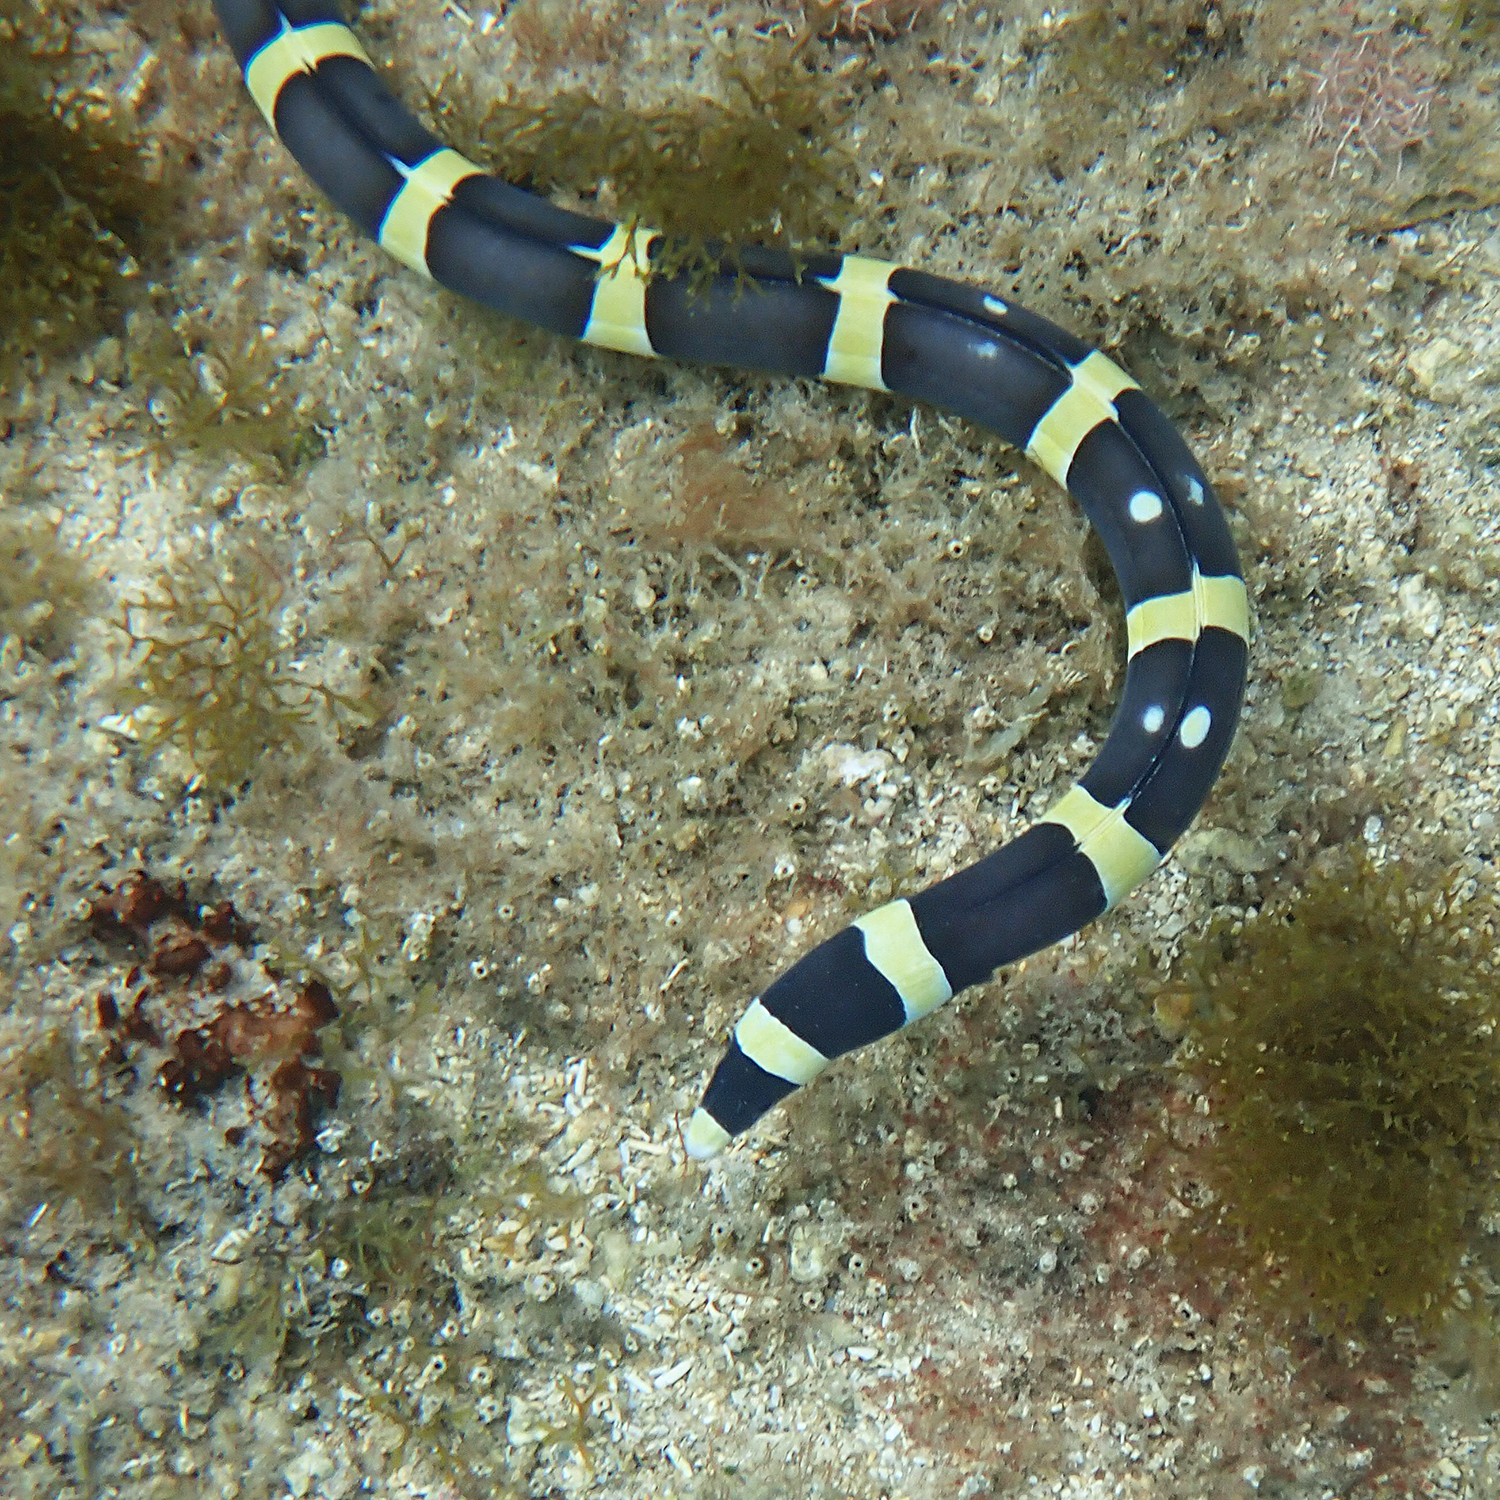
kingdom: Animalia
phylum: Chordata
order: Anguilliformes
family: Ophichthidae
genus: Leiuranus
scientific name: Leiuranus versicolor
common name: Convict snake eel
